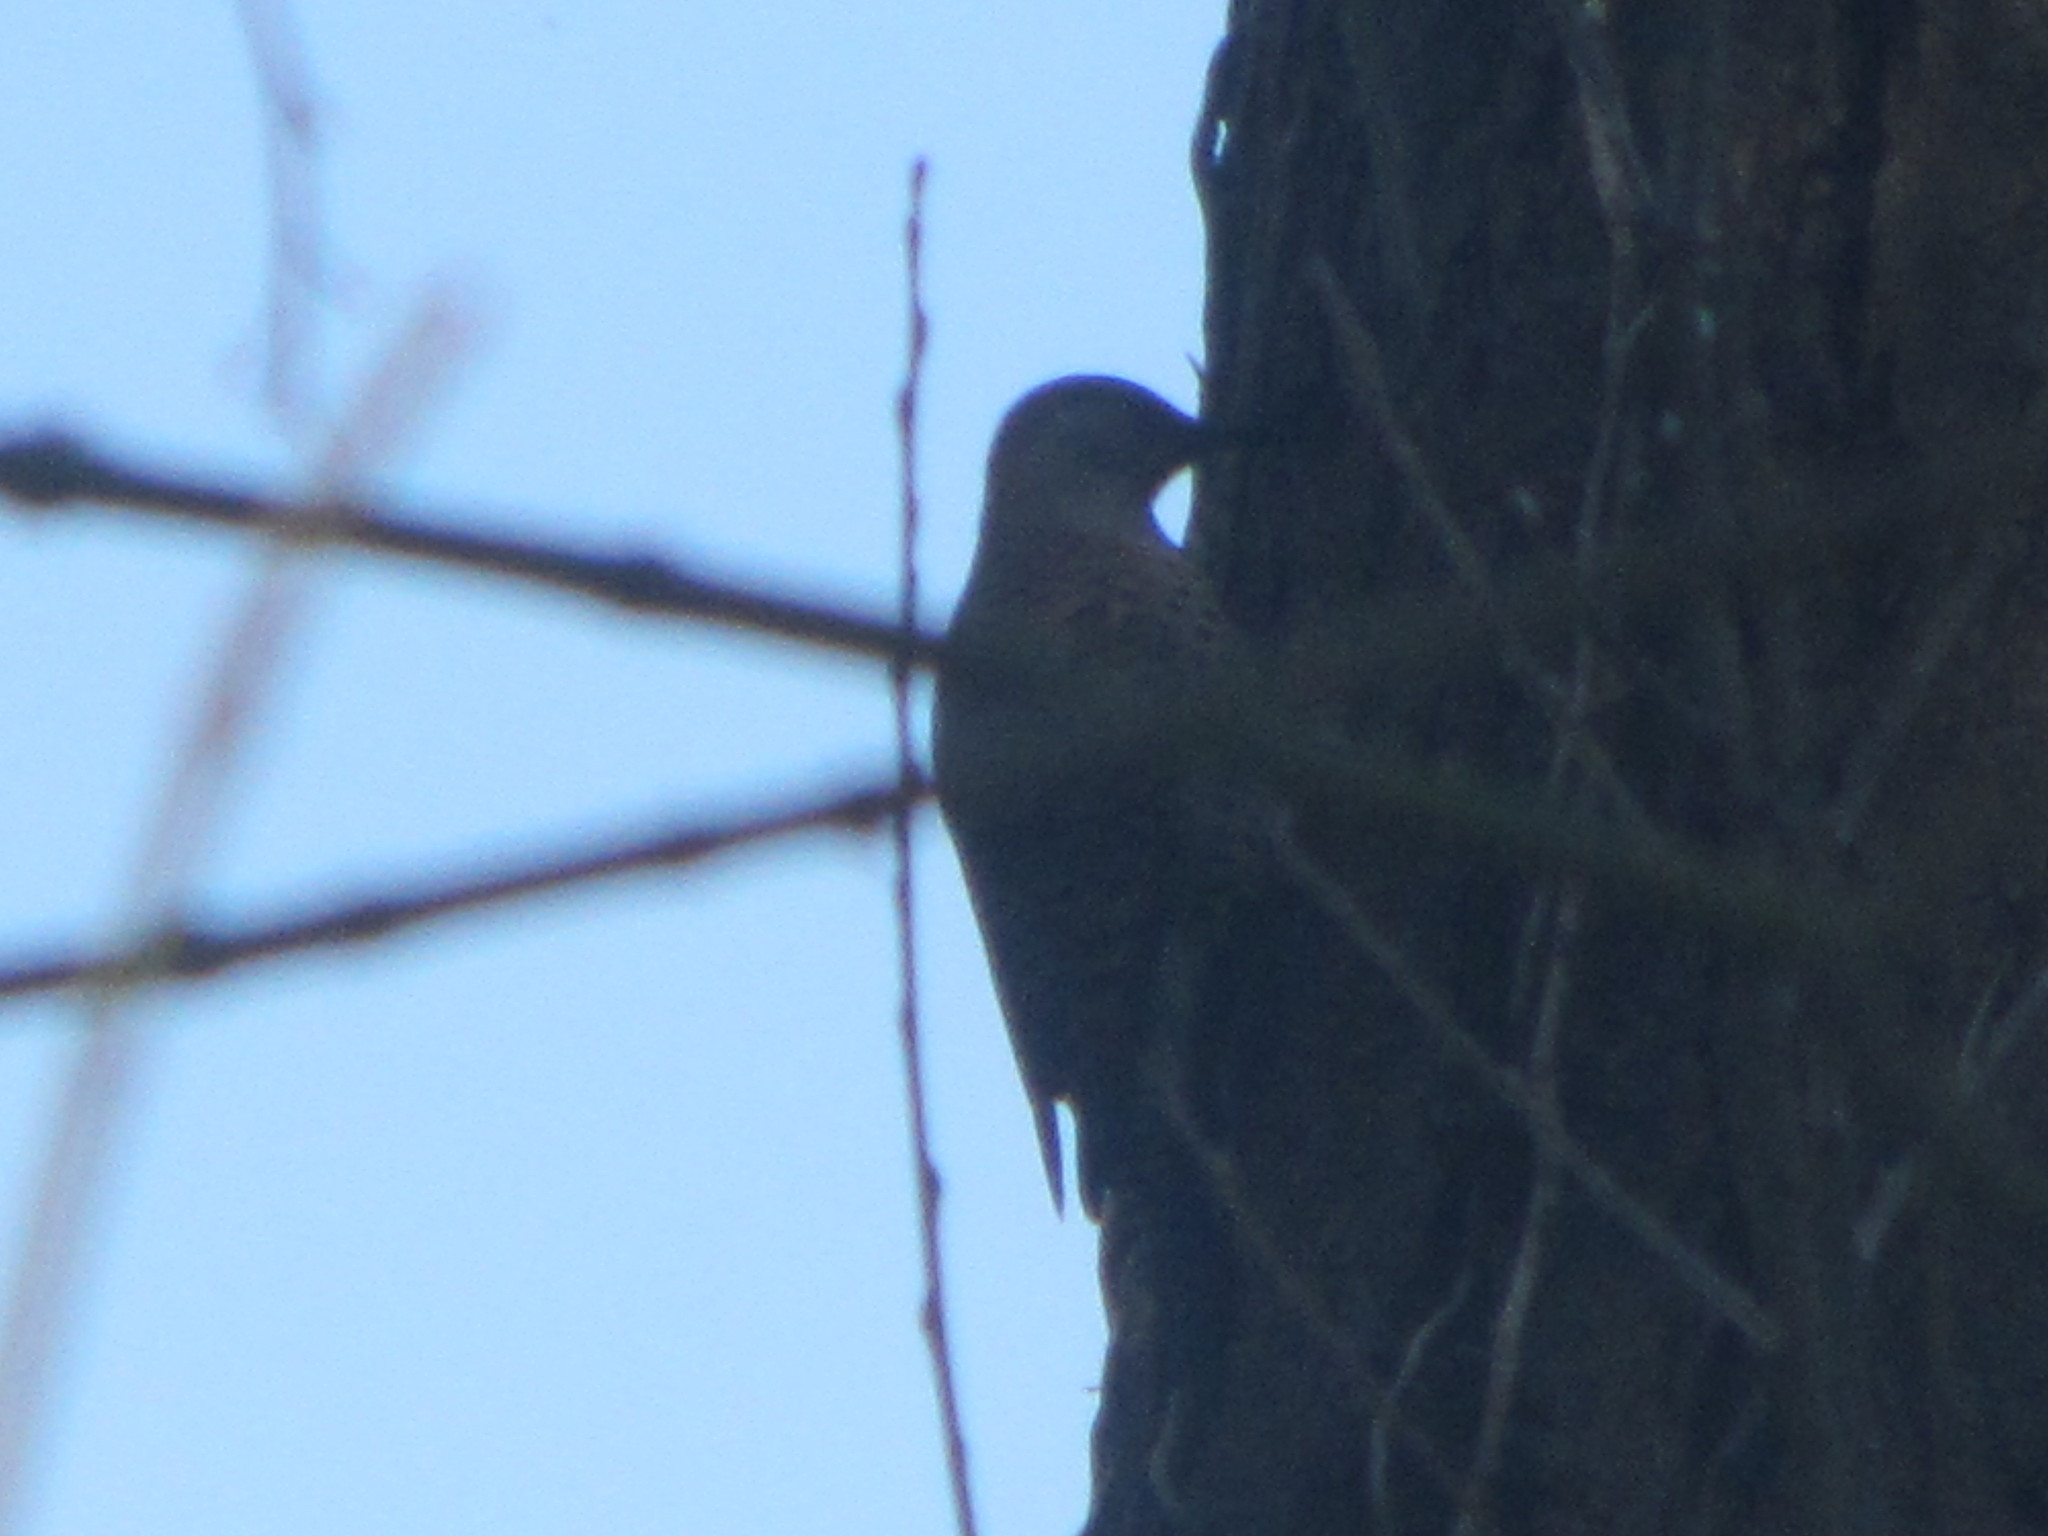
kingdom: Animalia
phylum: Chordata
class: Aves
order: Piciformes
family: Picidae
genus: Colaptes
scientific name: Colaptes auratus
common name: Northern flicker
